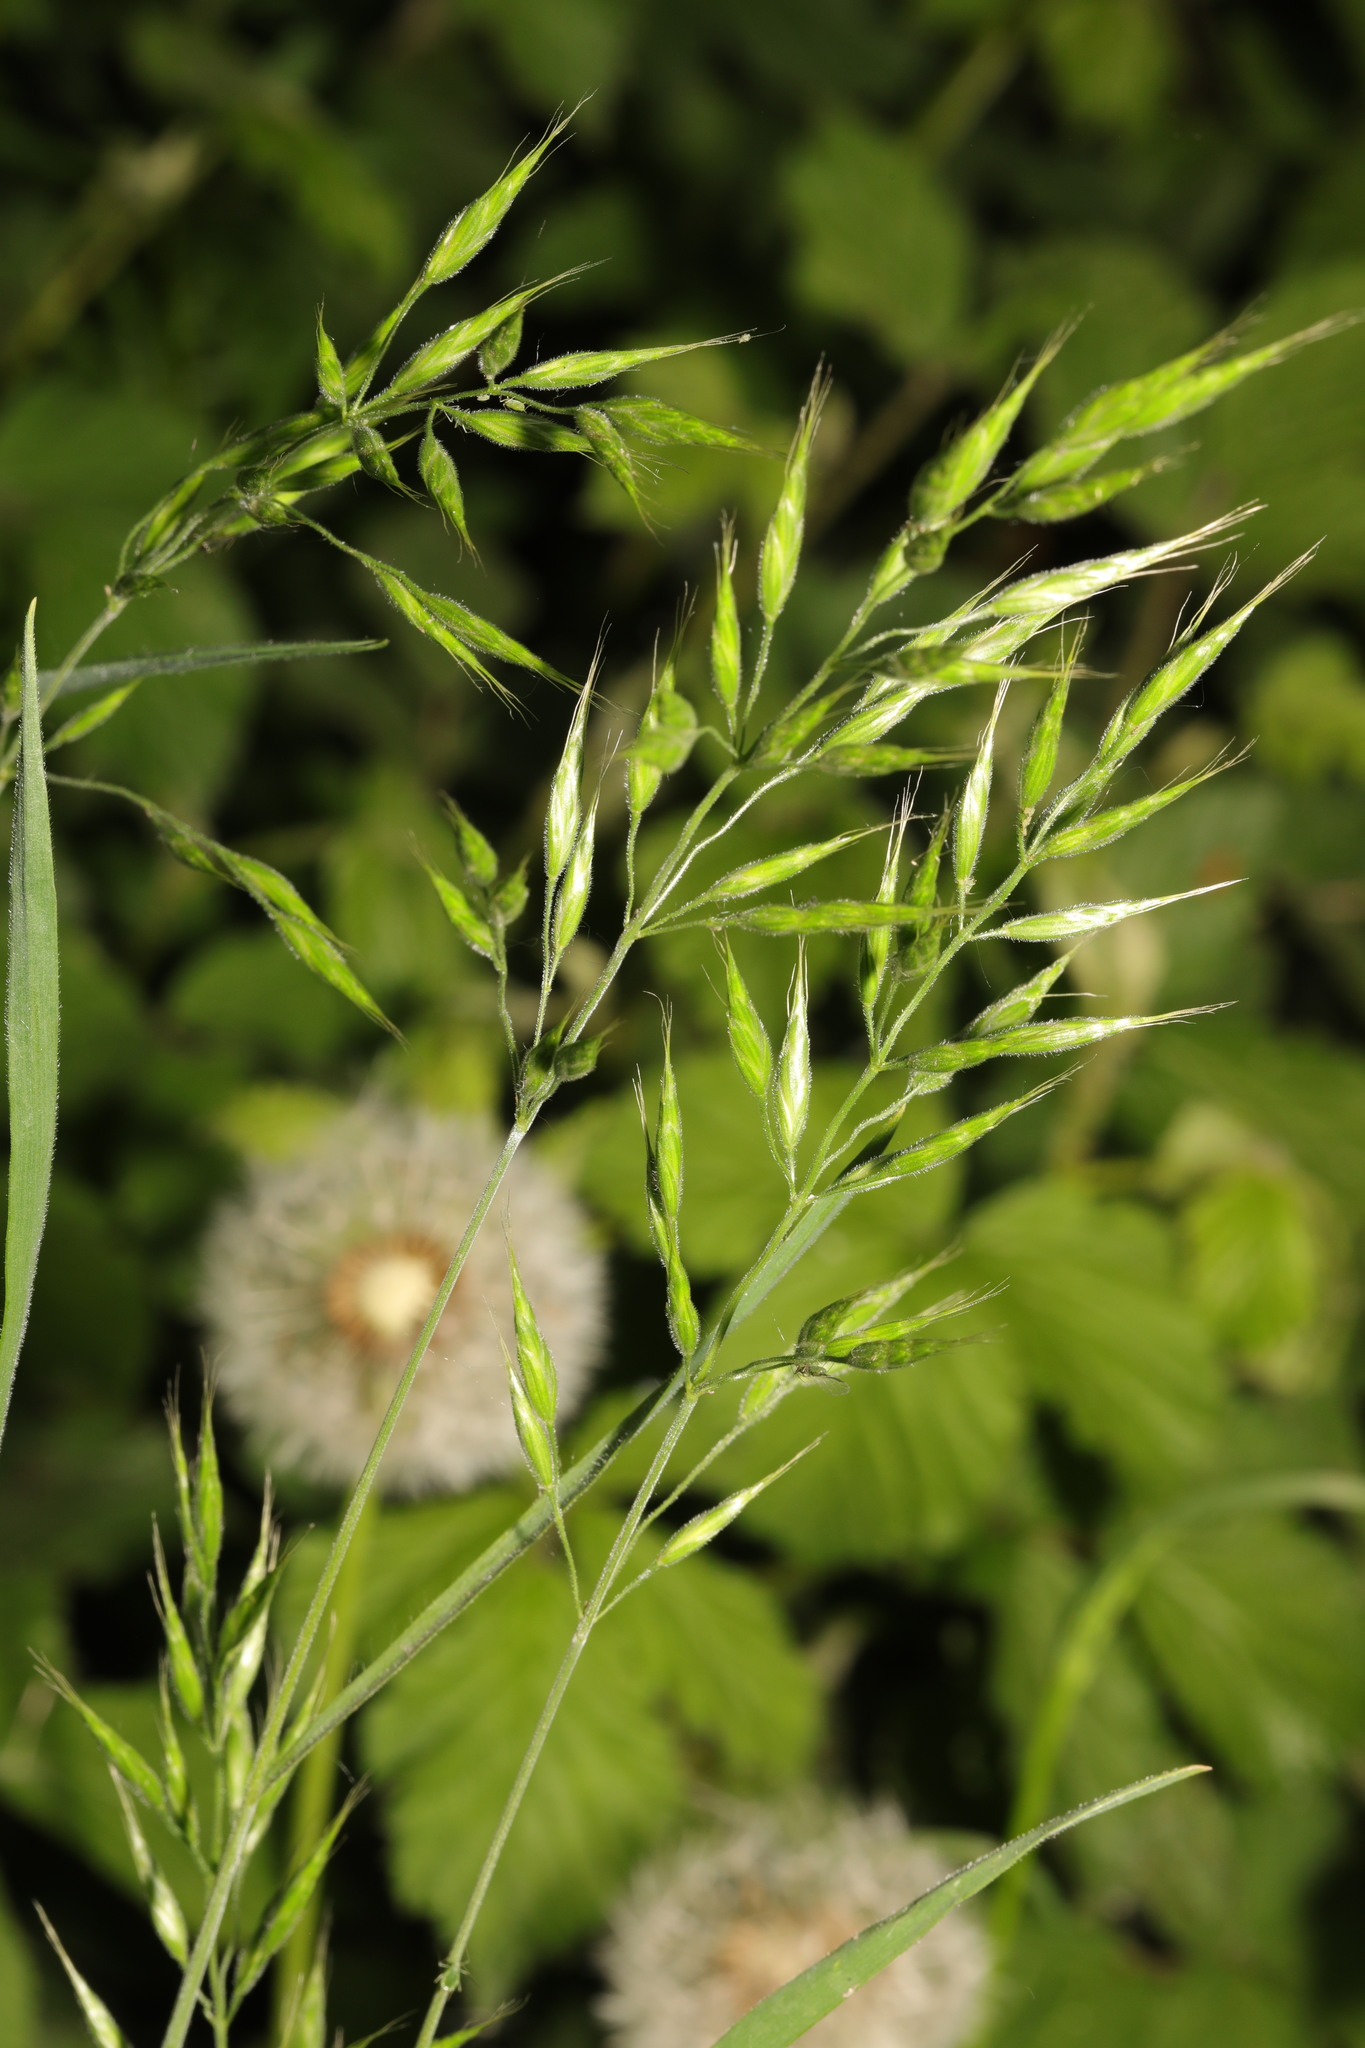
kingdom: Plantae
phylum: Tracheophyta
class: Liliopsida
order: Poales
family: Poaceae
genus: Bromus
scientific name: Bromus hordeaceus
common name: Soft brome
